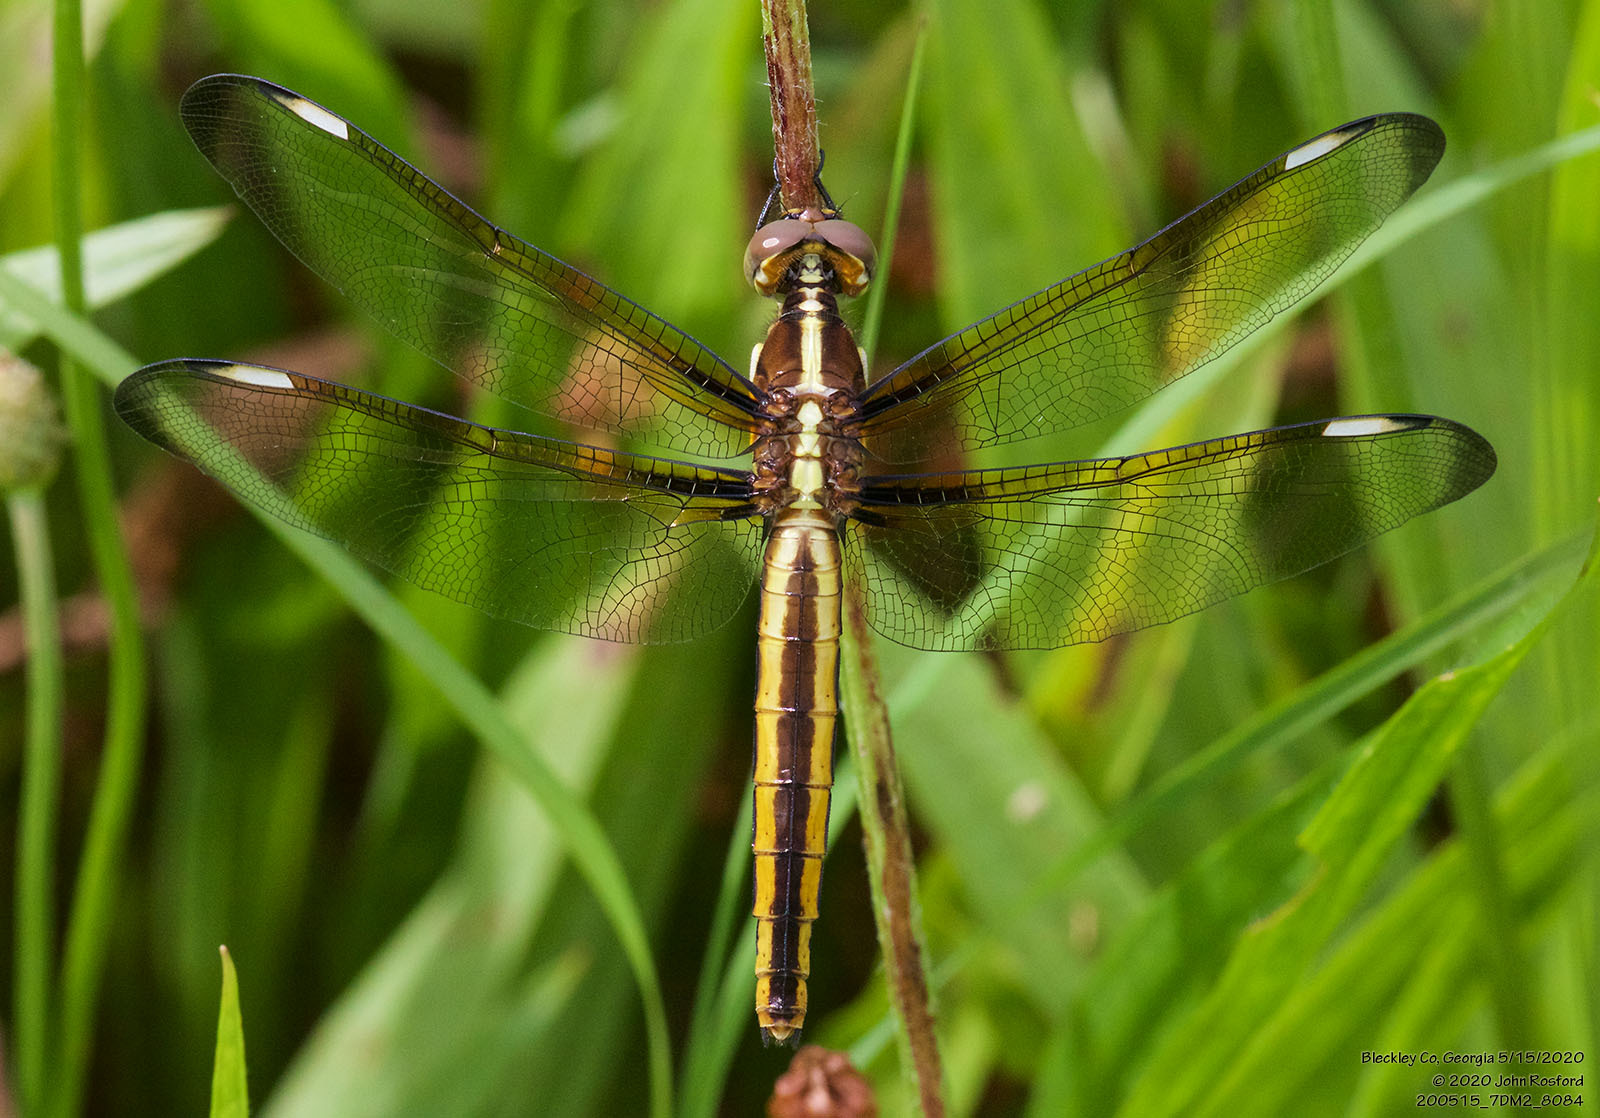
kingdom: Animalia
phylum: Arthropoda
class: Insecta
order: Odonata
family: Libellulidae
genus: Libellula
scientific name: Libellula cyanea
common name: Spangled skimmer
